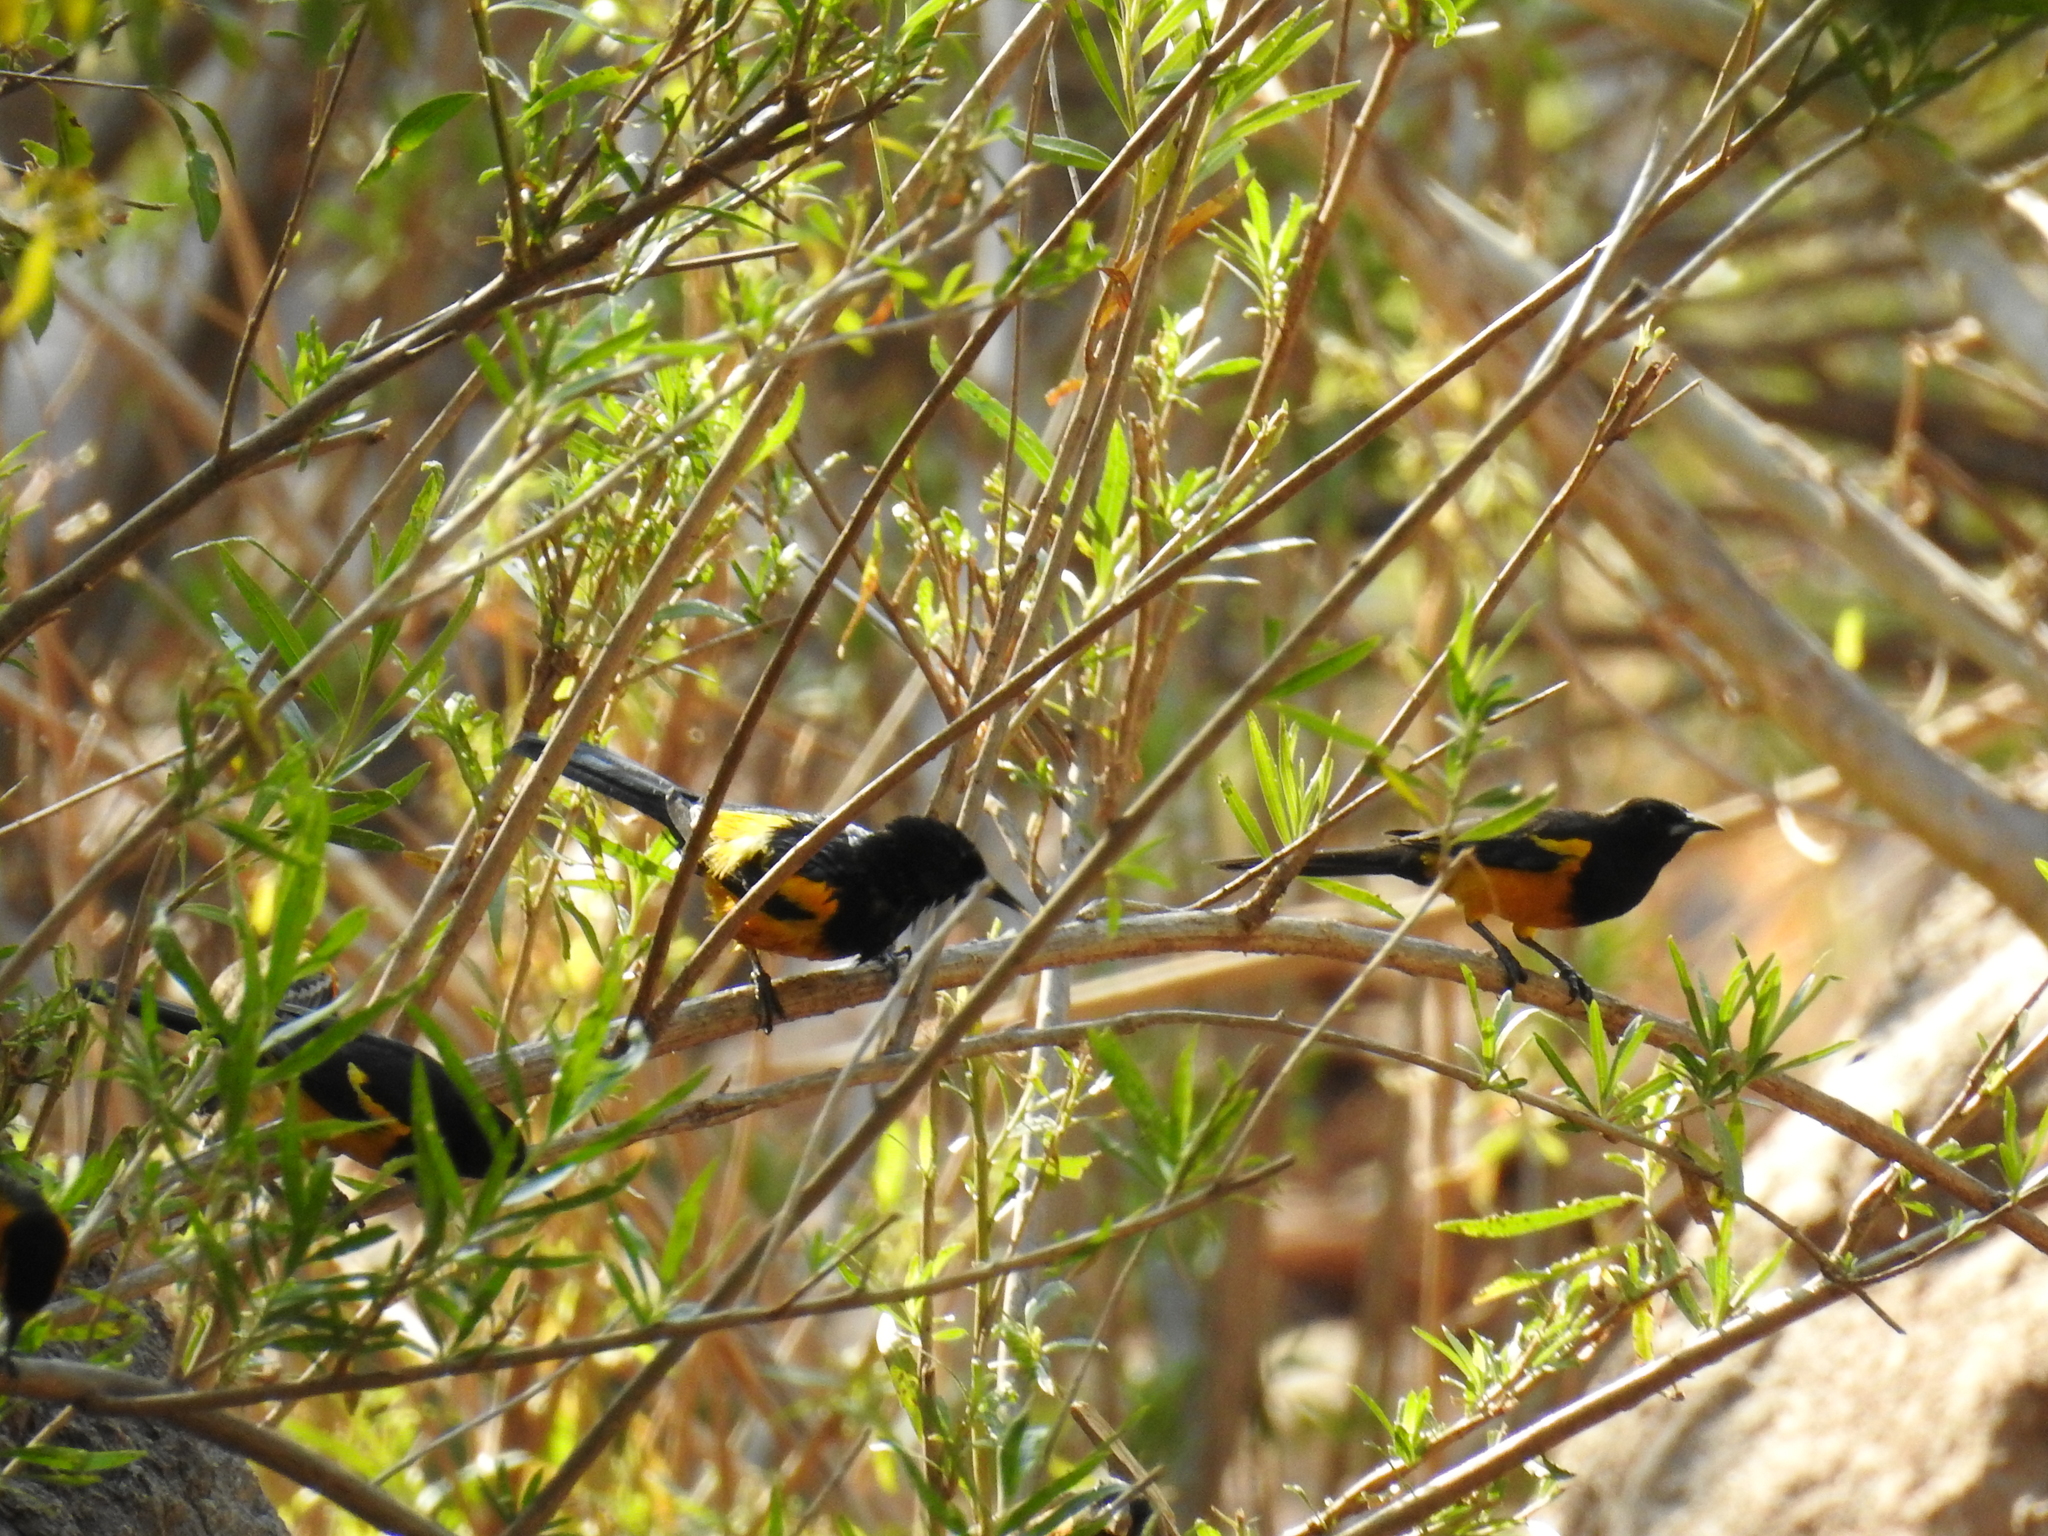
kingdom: Animalia
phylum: Chordata
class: Aves
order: Passeriformes
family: Icteridae
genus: Icterus
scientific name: Icterus wagleri
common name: Black-vented oriole
